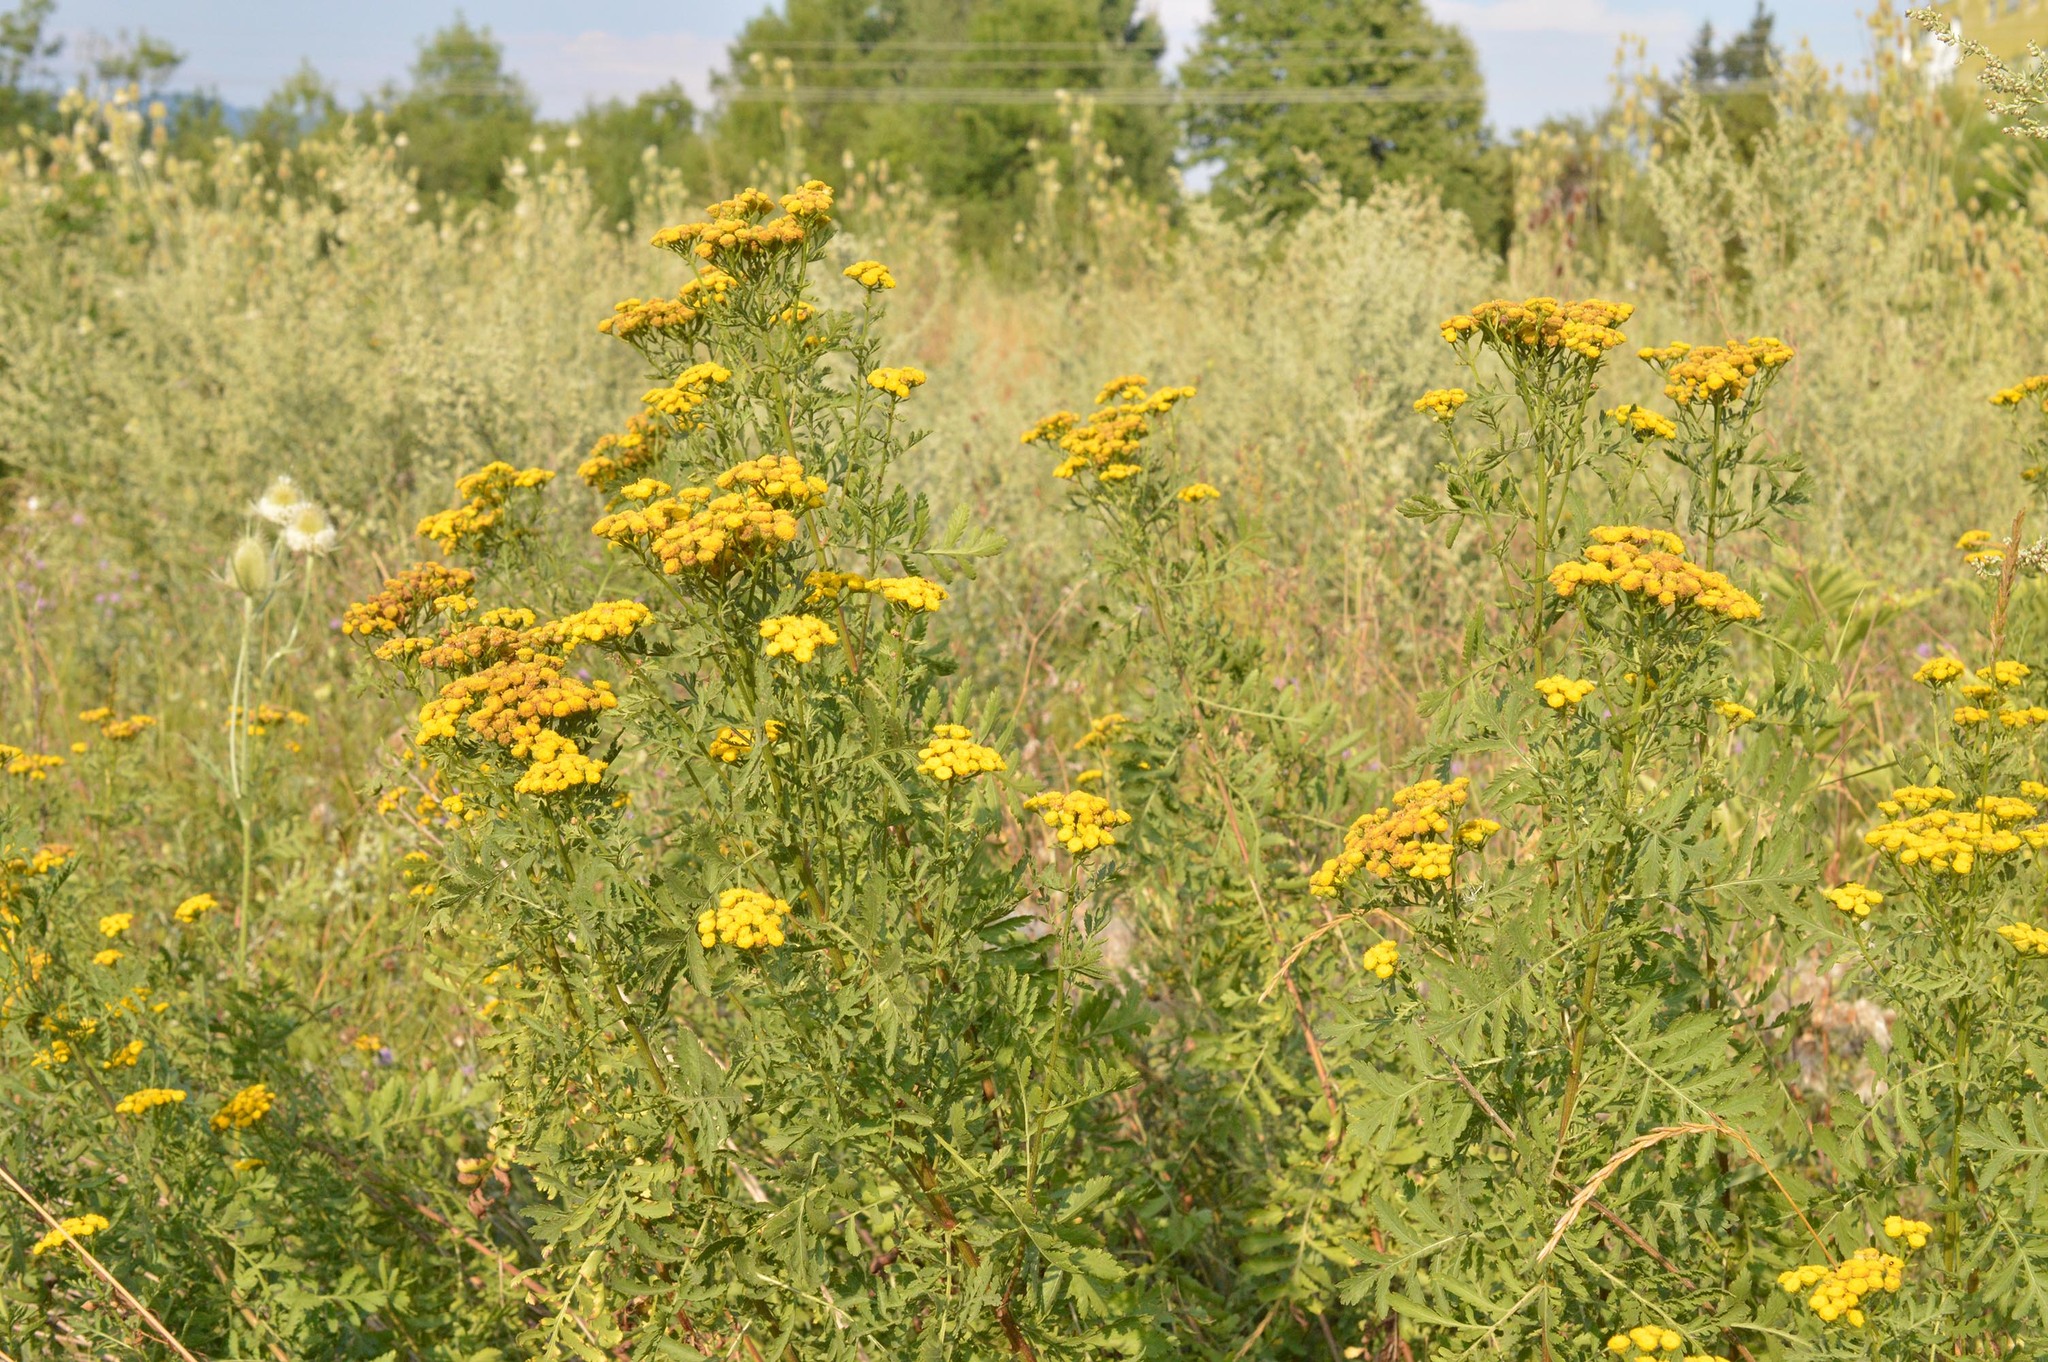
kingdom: Plantae
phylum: Tracheophyta
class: Magnoliopsida
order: Asterales
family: Asteraceae
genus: Tanacetum
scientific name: Tanacetum vulgare
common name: Common tansy
